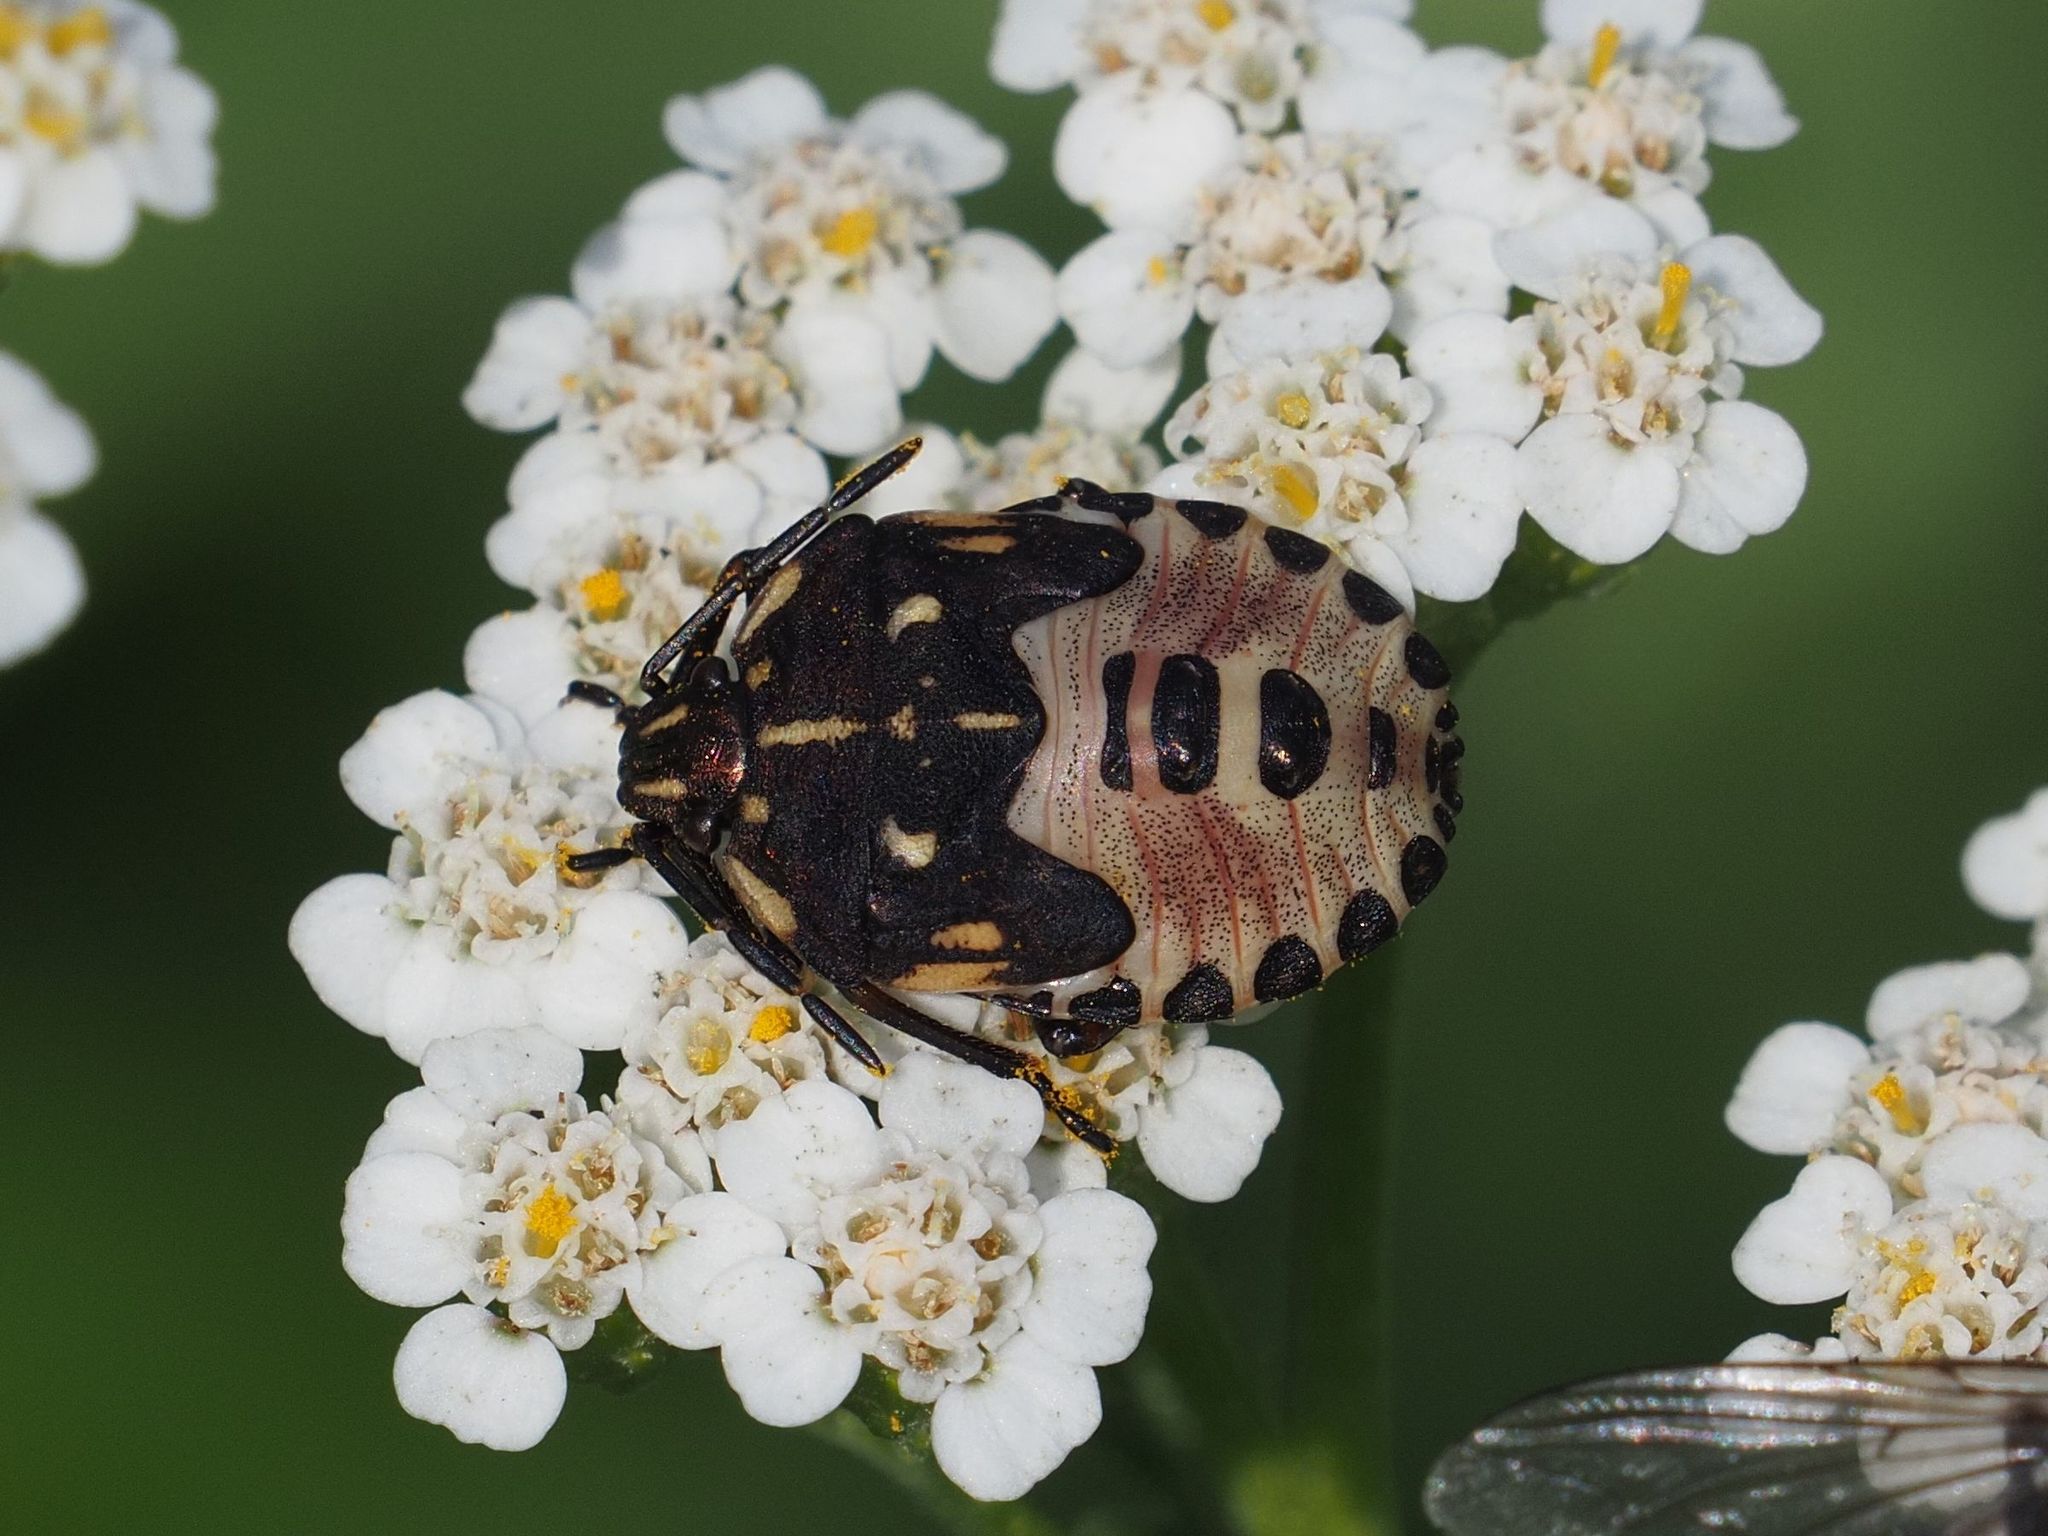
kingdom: Animalia
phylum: Arthropoda
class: Insecta
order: Hemiptera
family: Pentatomidae
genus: Carpocoris
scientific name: Carpocoris purpureipennis
